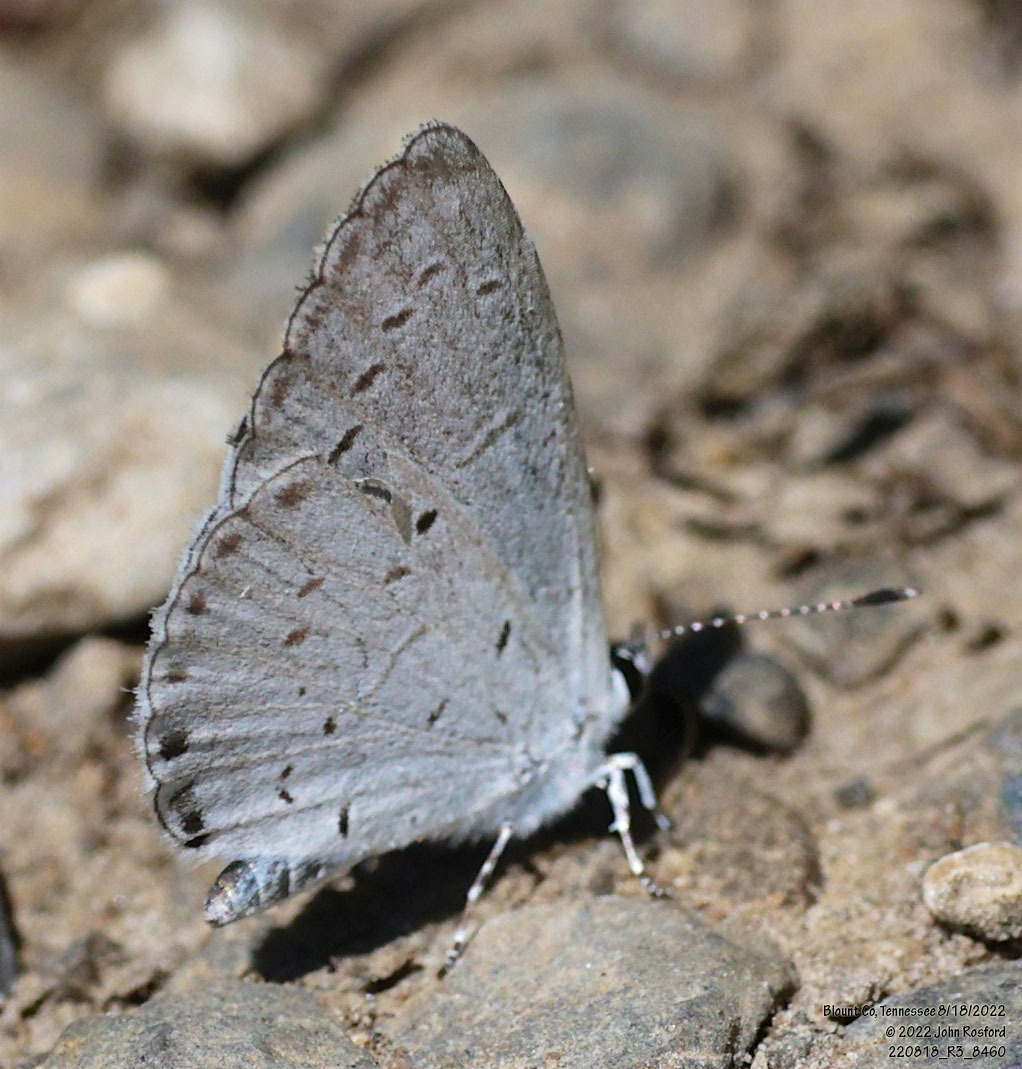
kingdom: Animalia
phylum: Arthropoda
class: Insecta
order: Lepidoptera
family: Lycaenidae
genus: Cyaniris
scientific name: Cyaniris neglecta
